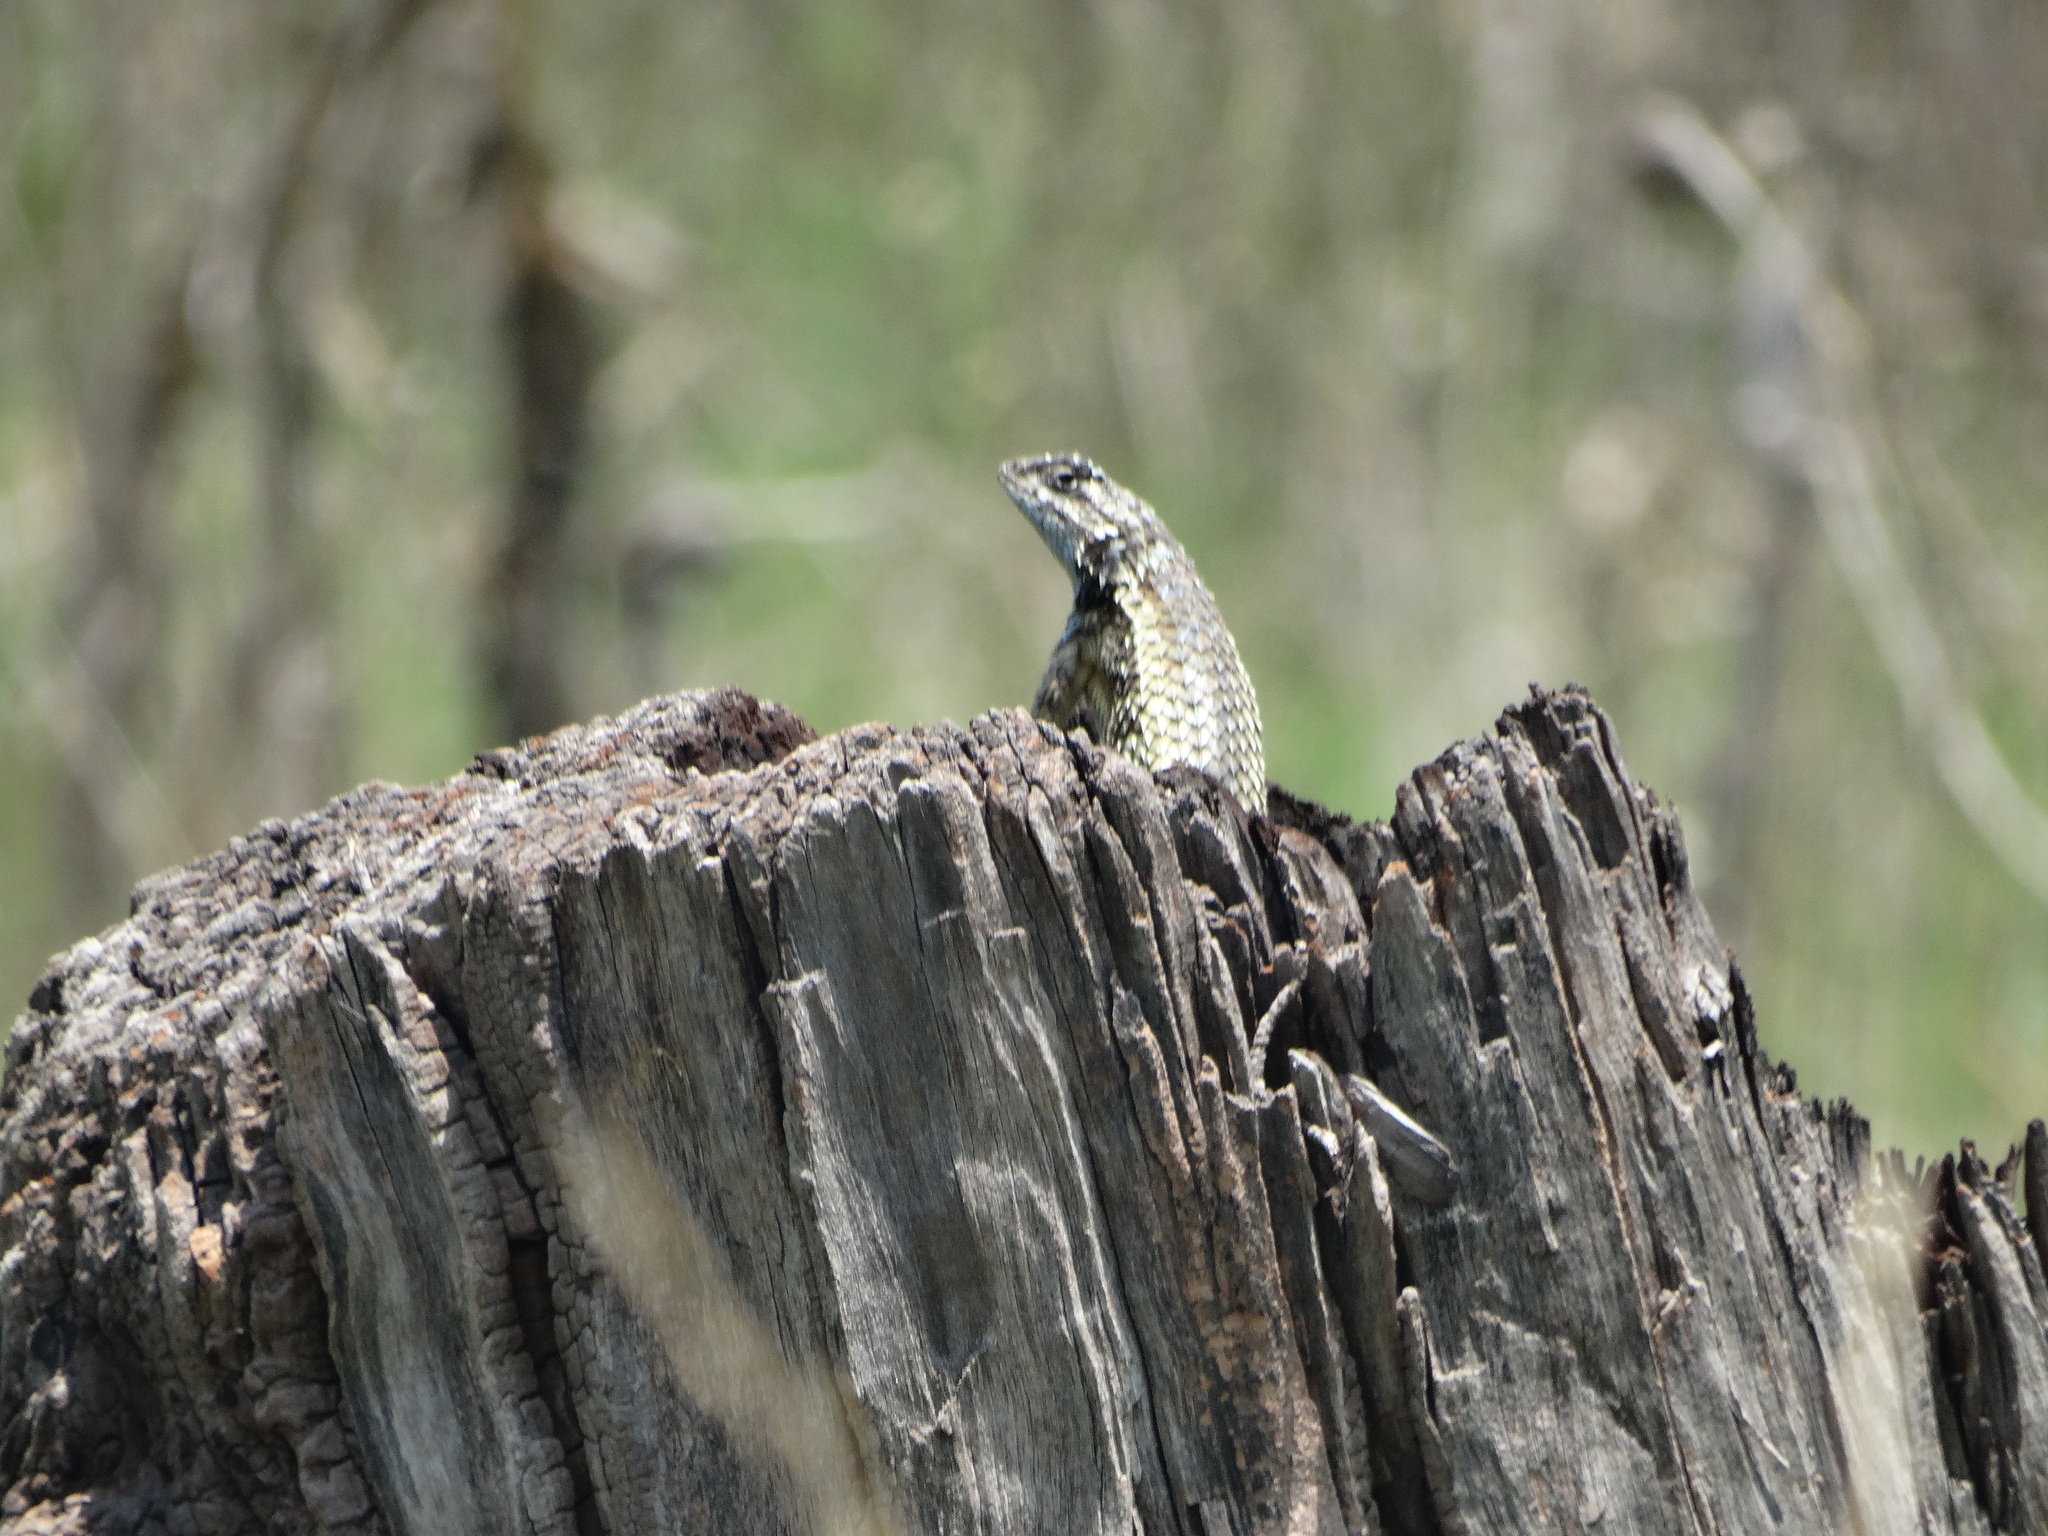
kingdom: Animalia
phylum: Chordata
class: Squamata
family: Phrynosomatidae
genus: Sceloporus
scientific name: Sceloporus spinosus
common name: Blue-spotted spiny lizard [caeruleopunctatus]
